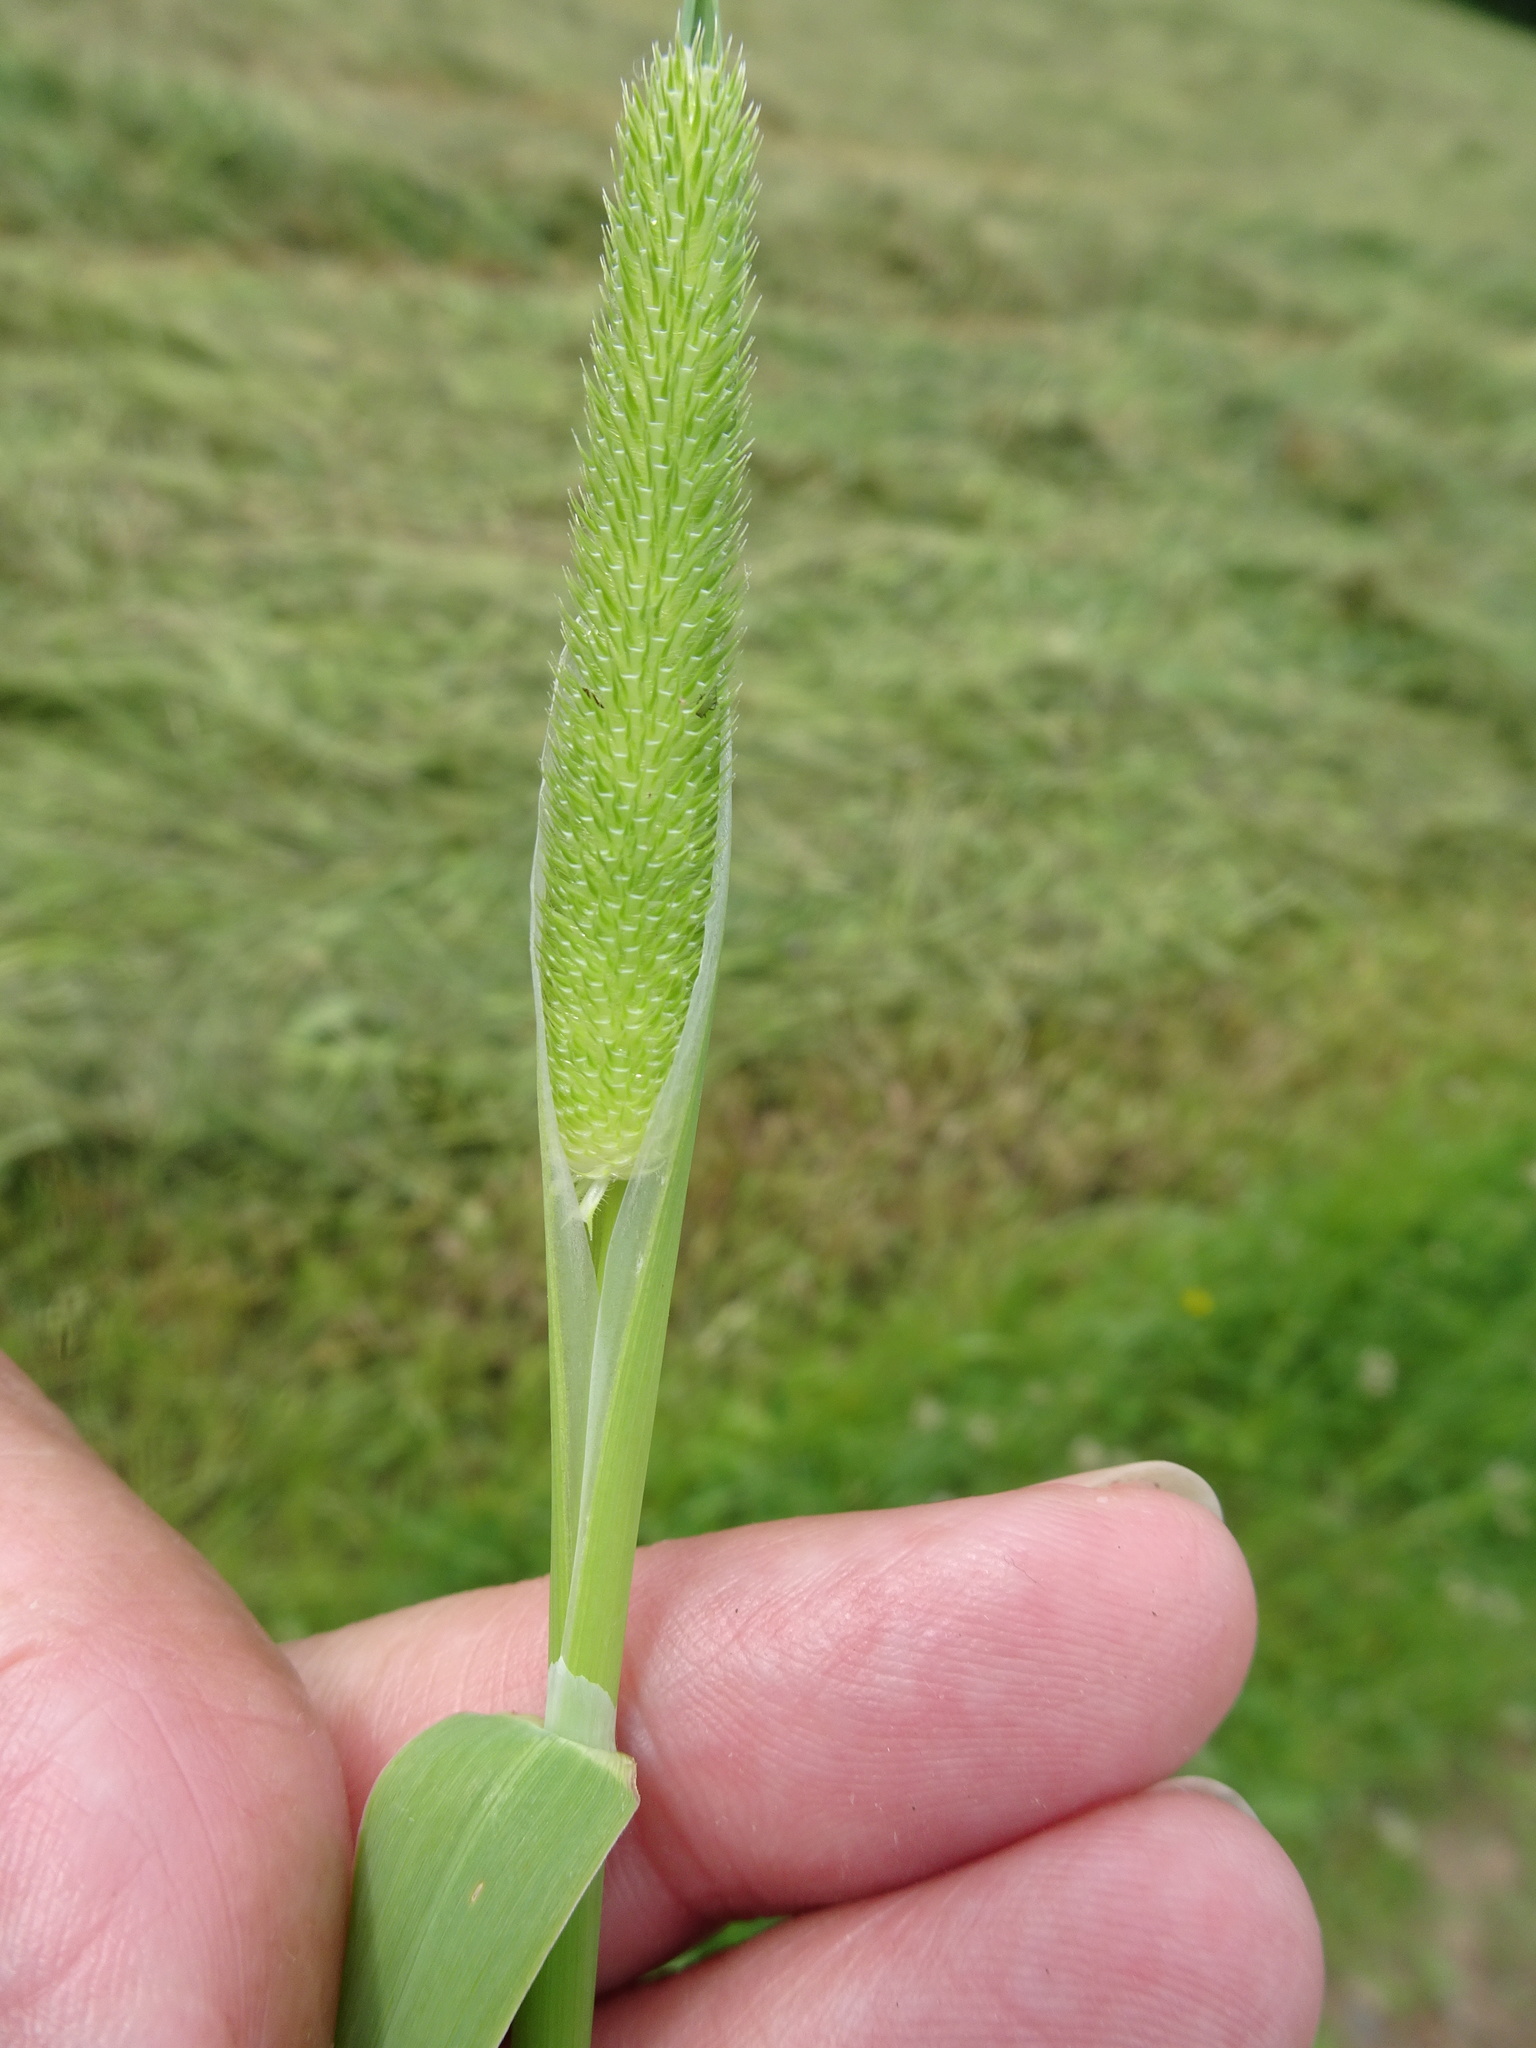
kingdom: Plantae
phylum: Tracheophyta
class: Liliopsida
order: Poales
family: Poaceae
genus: Phleum
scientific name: Phleum pratense
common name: Timothy grass
